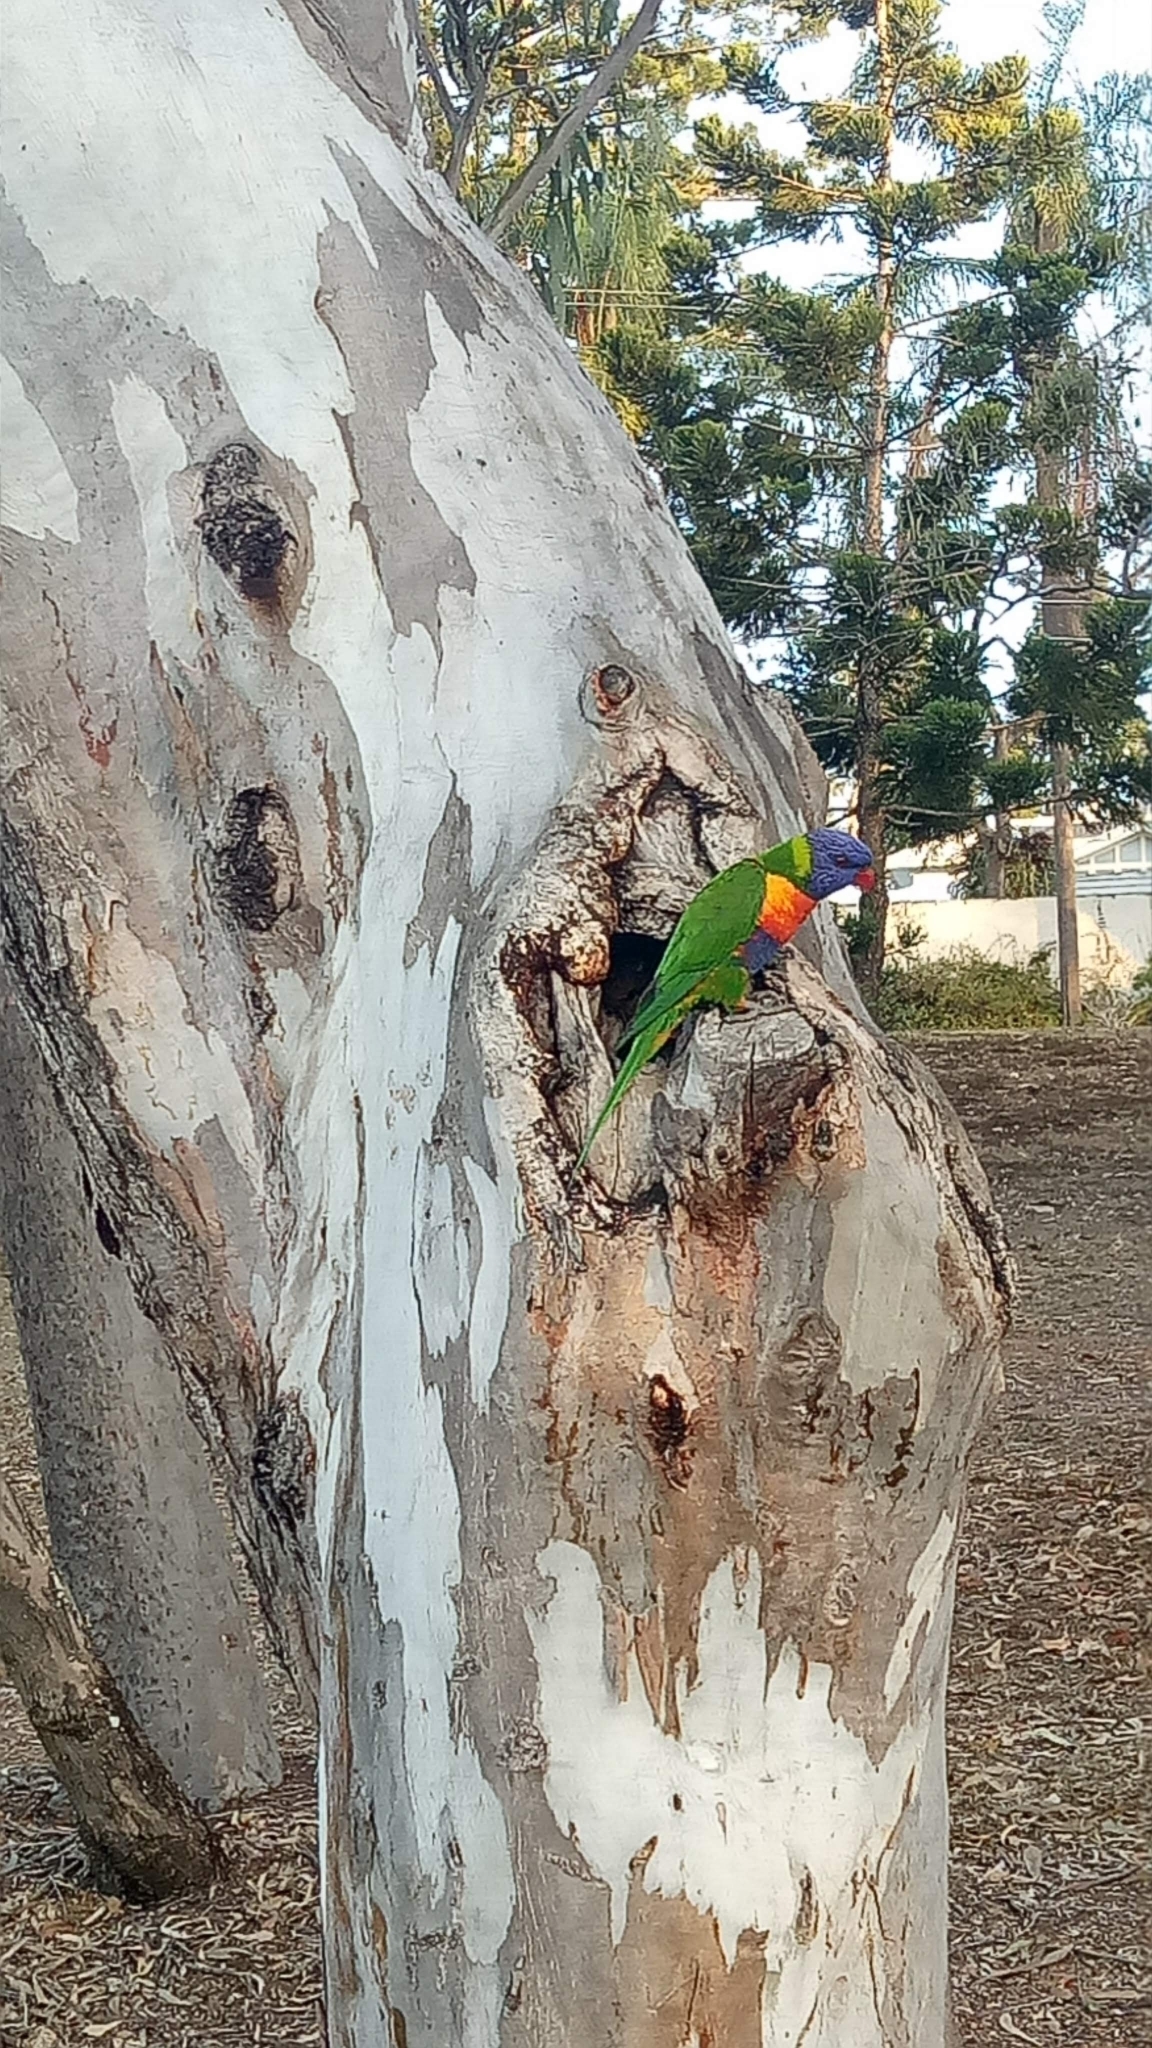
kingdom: Animalia
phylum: Chordata
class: Aves
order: Psittaciformes
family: Psittacidae
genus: Trichoglossus
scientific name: Trichoglossus haematodus
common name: Coconut lorikeet
